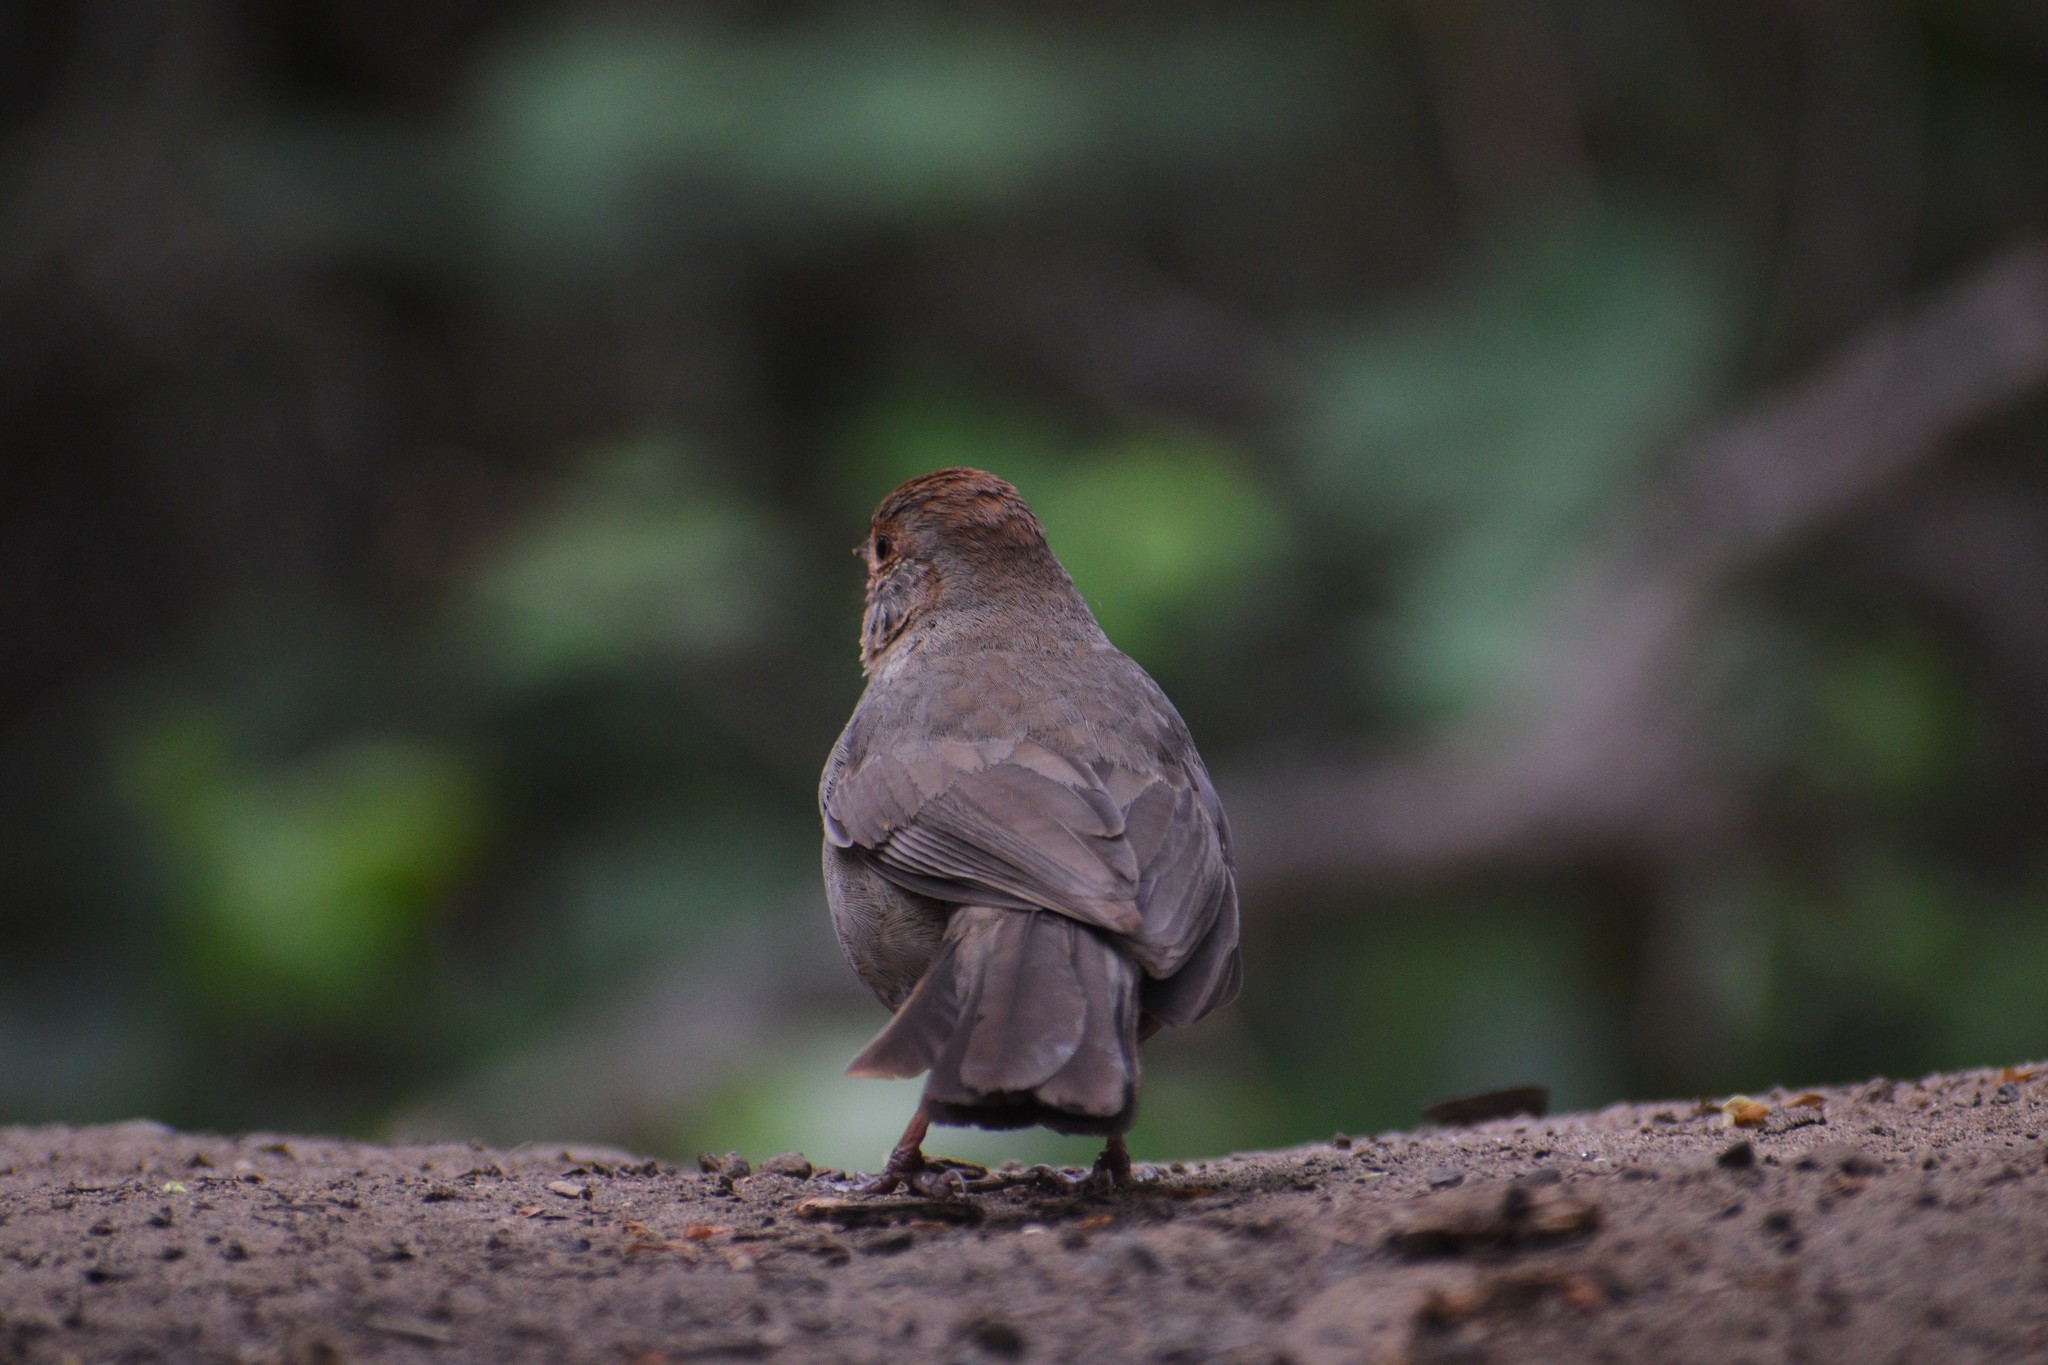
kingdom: Animalia
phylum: Chordata
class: Aves
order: Passeriformes
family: Passerellidae
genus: Melozone
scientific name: Melozone crissalis
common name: California towhee
